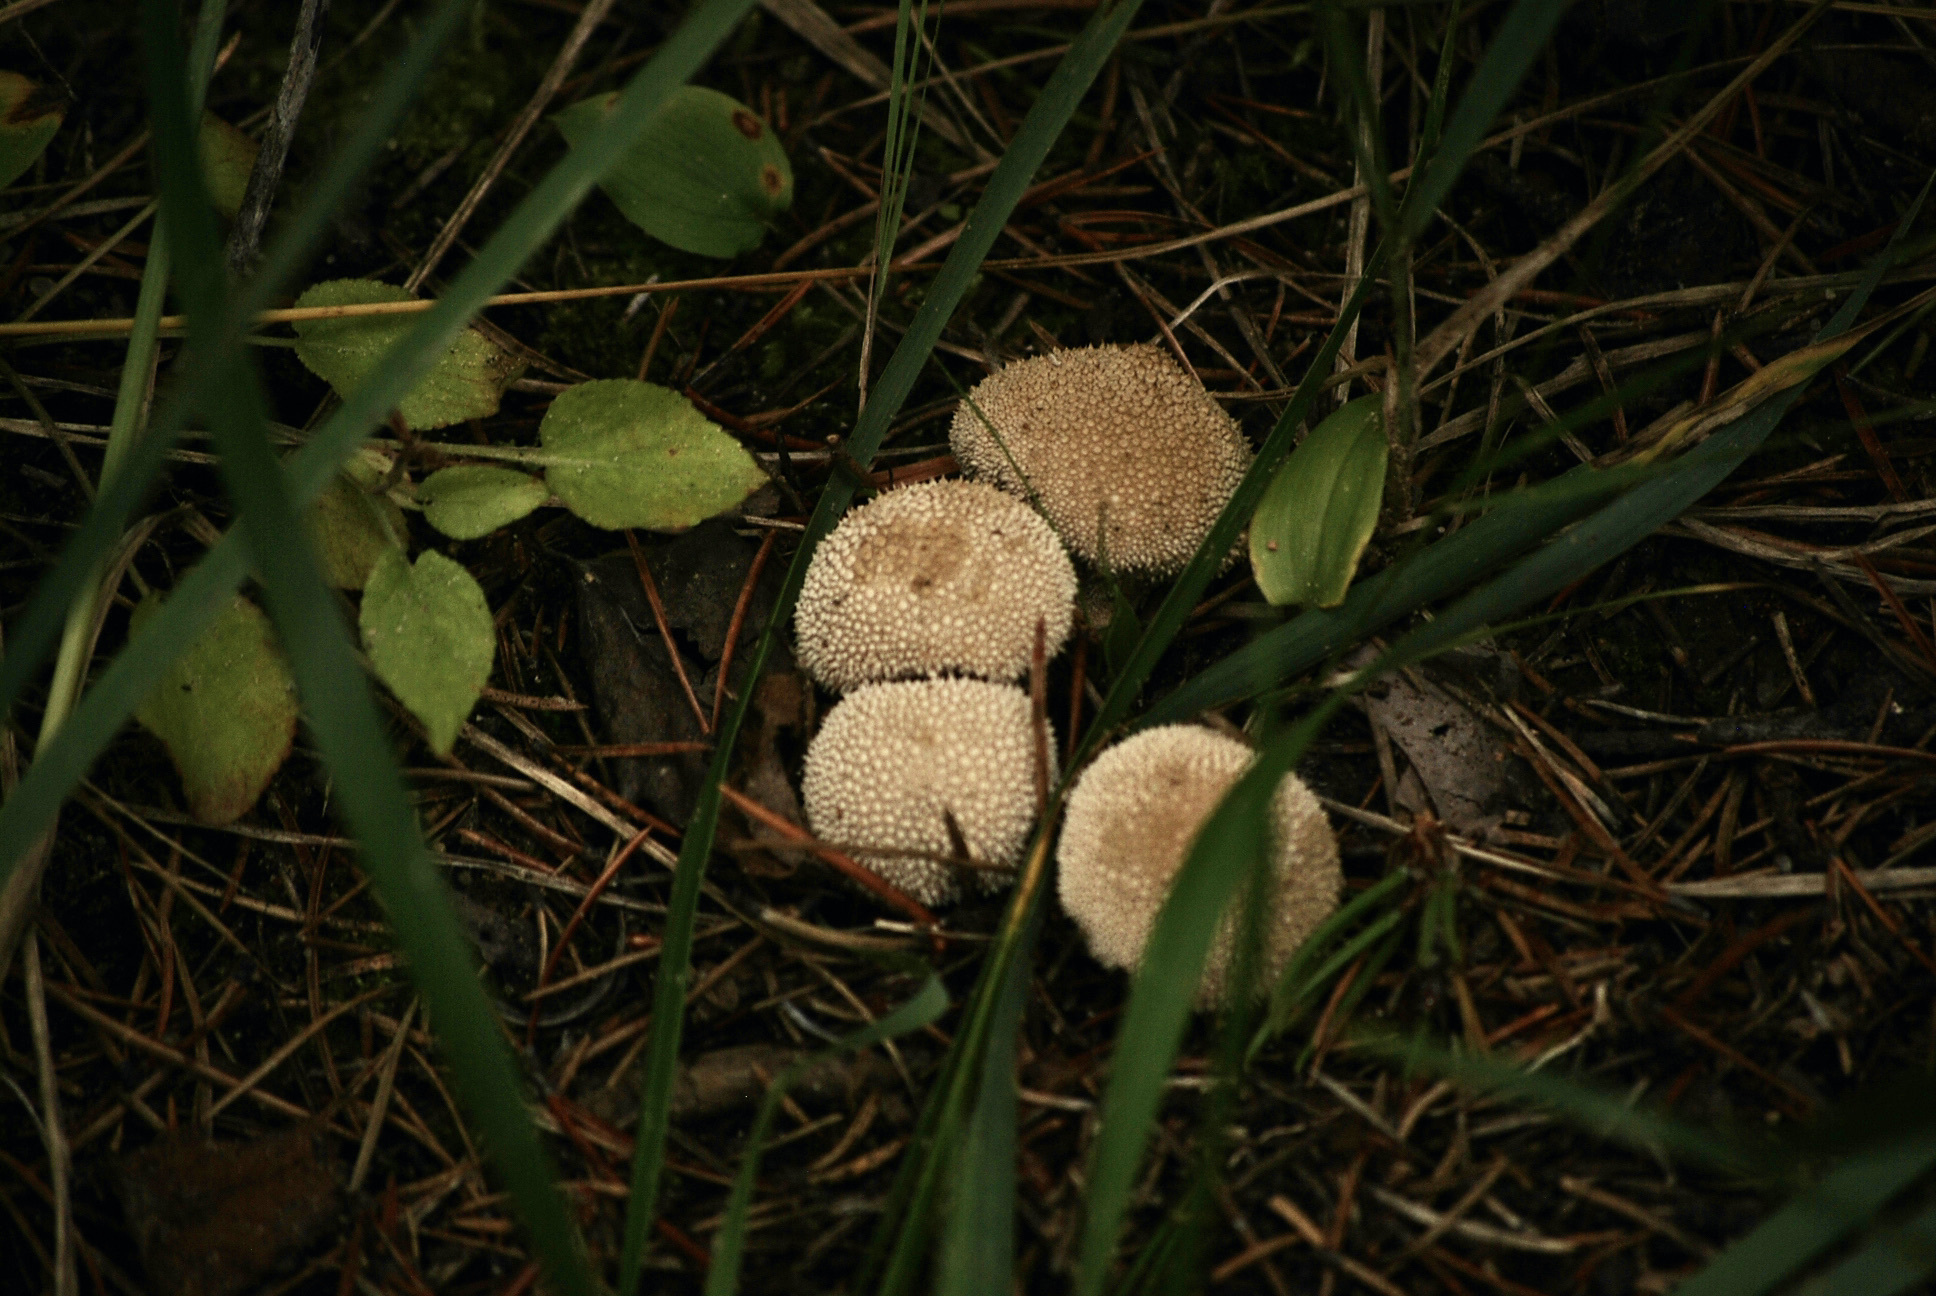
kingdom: Fungi
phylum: Basidiomycota
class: Agaricomycetes
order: Agaricales
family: Lycoperdaceae
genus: Lycoperdon
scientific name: Lycoperdon perlatum
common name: Common puffball
